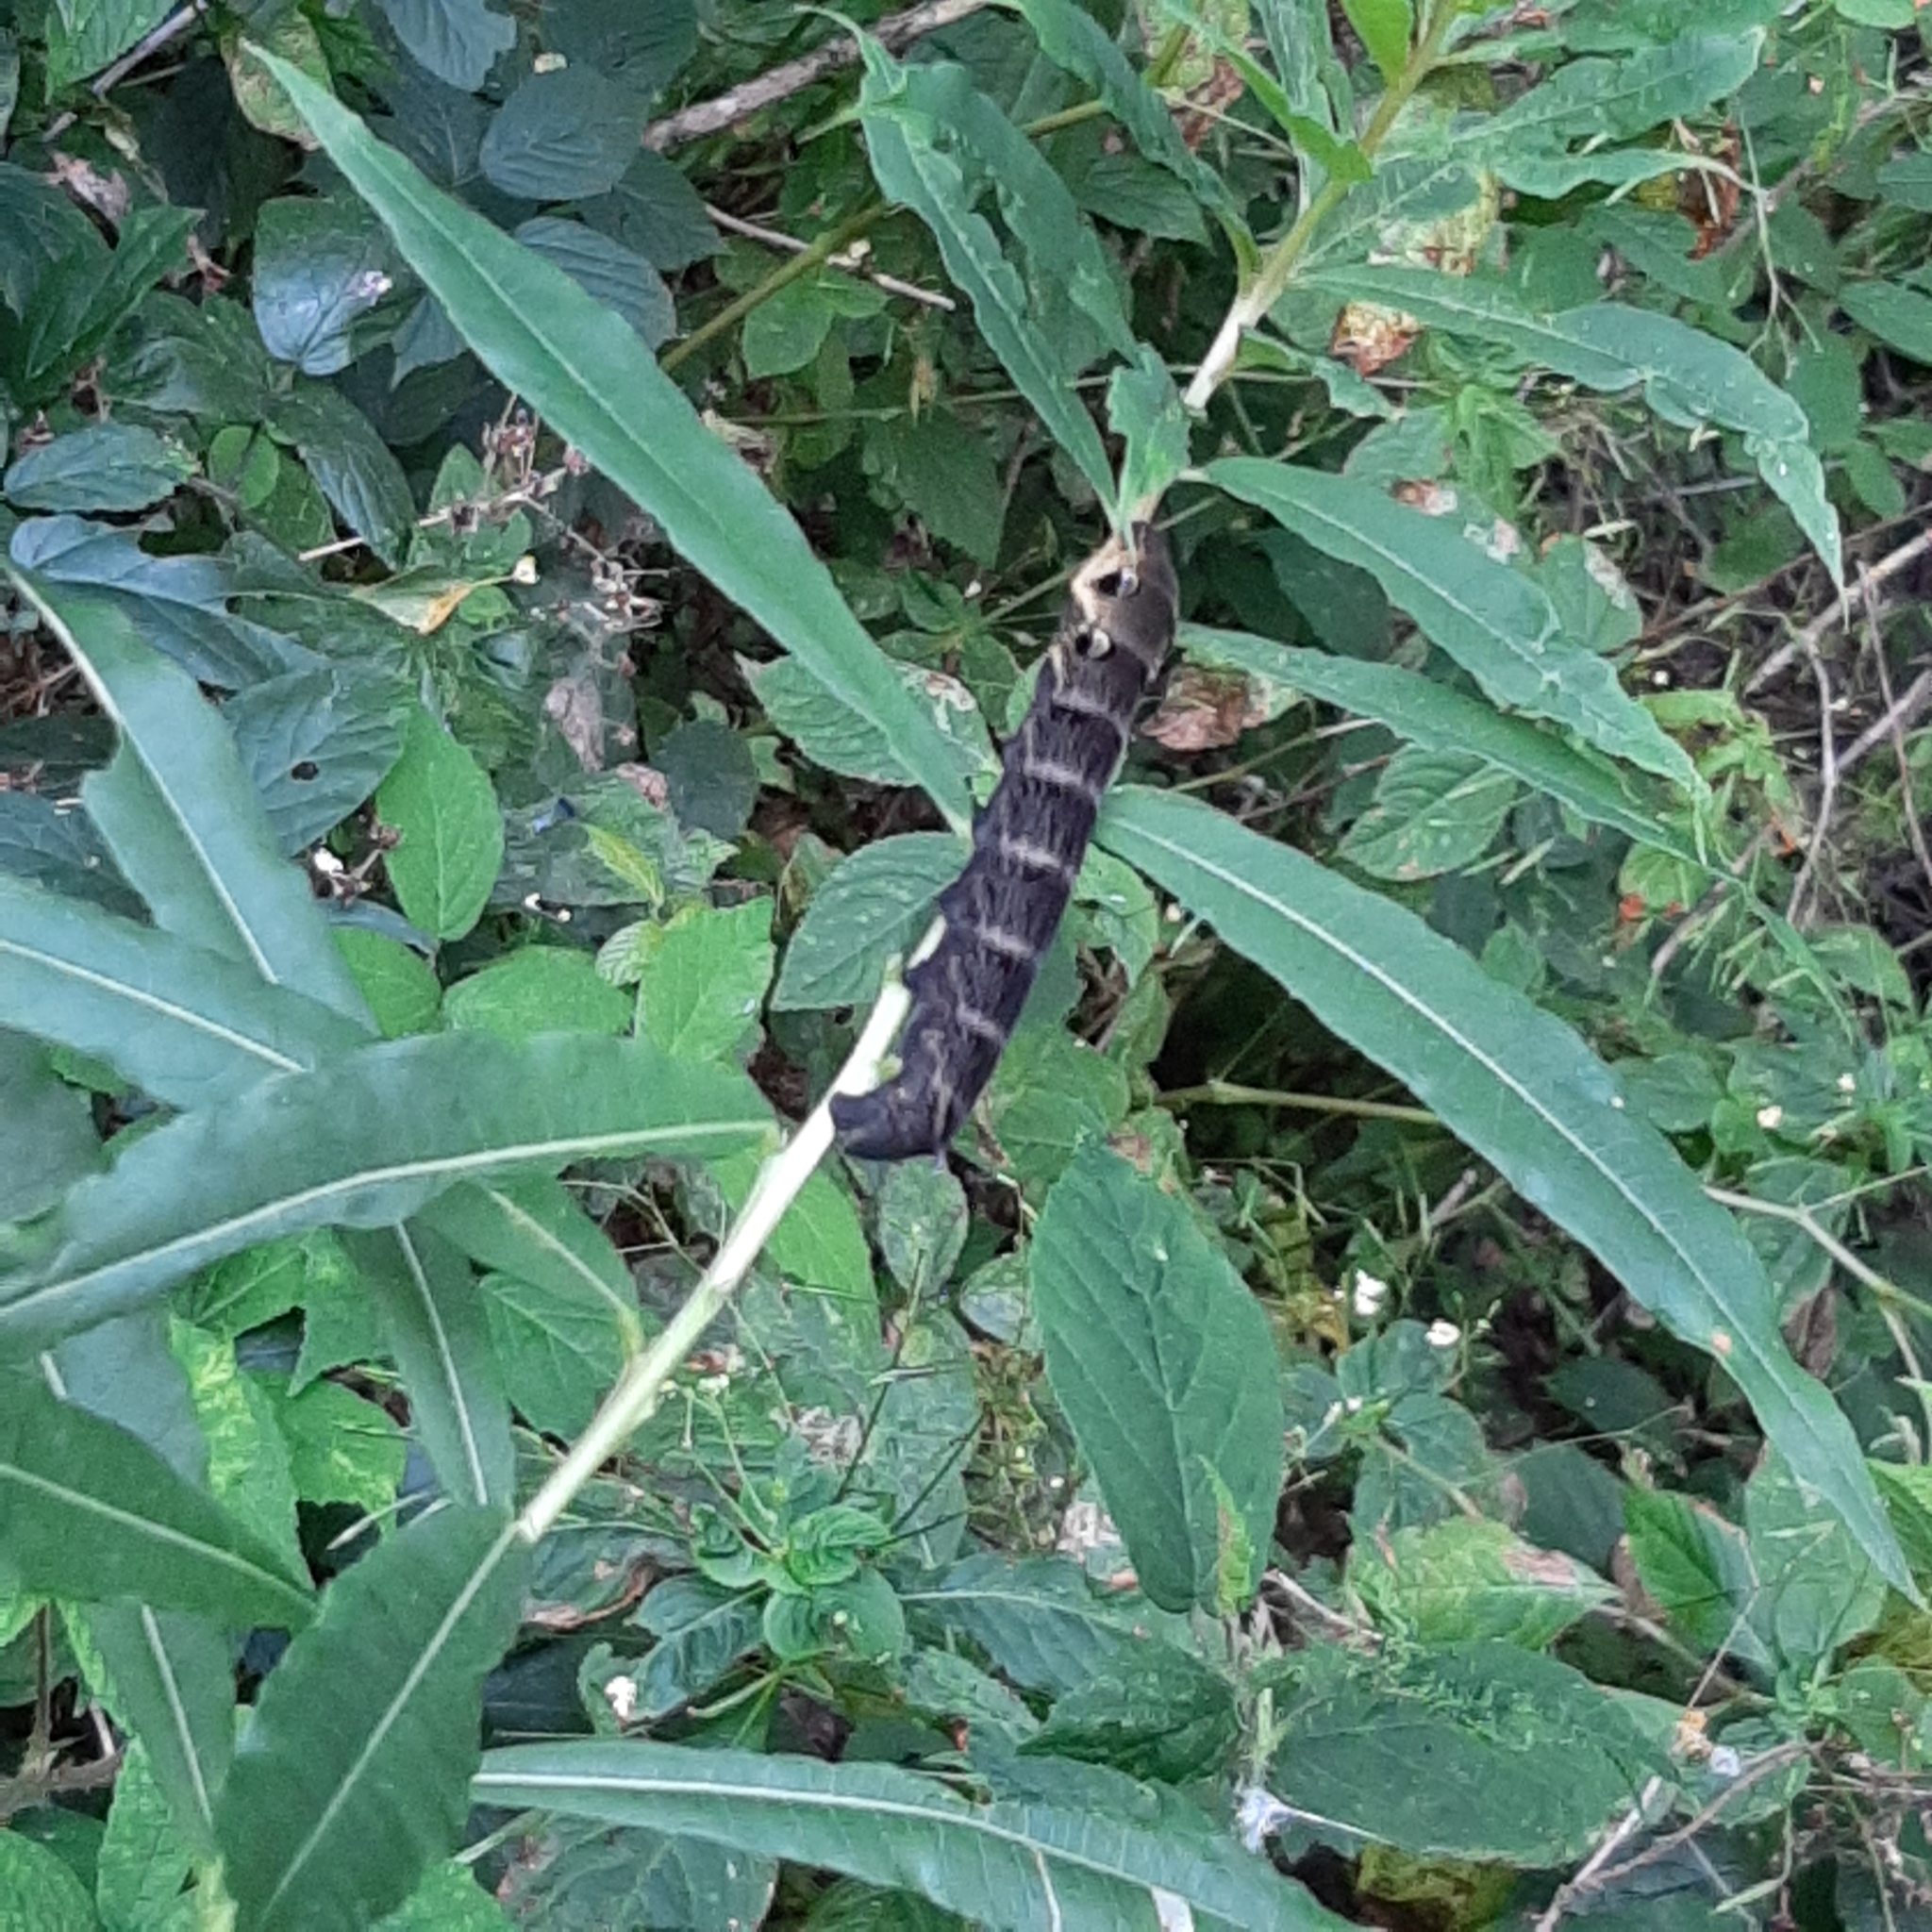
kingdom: Animalia
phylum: Arthropoda
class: Insecta
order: Lepidoptera
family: Sphingidae
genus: Deilephila
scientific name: Deilephila elpenor
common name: Elephant hawk-moth
